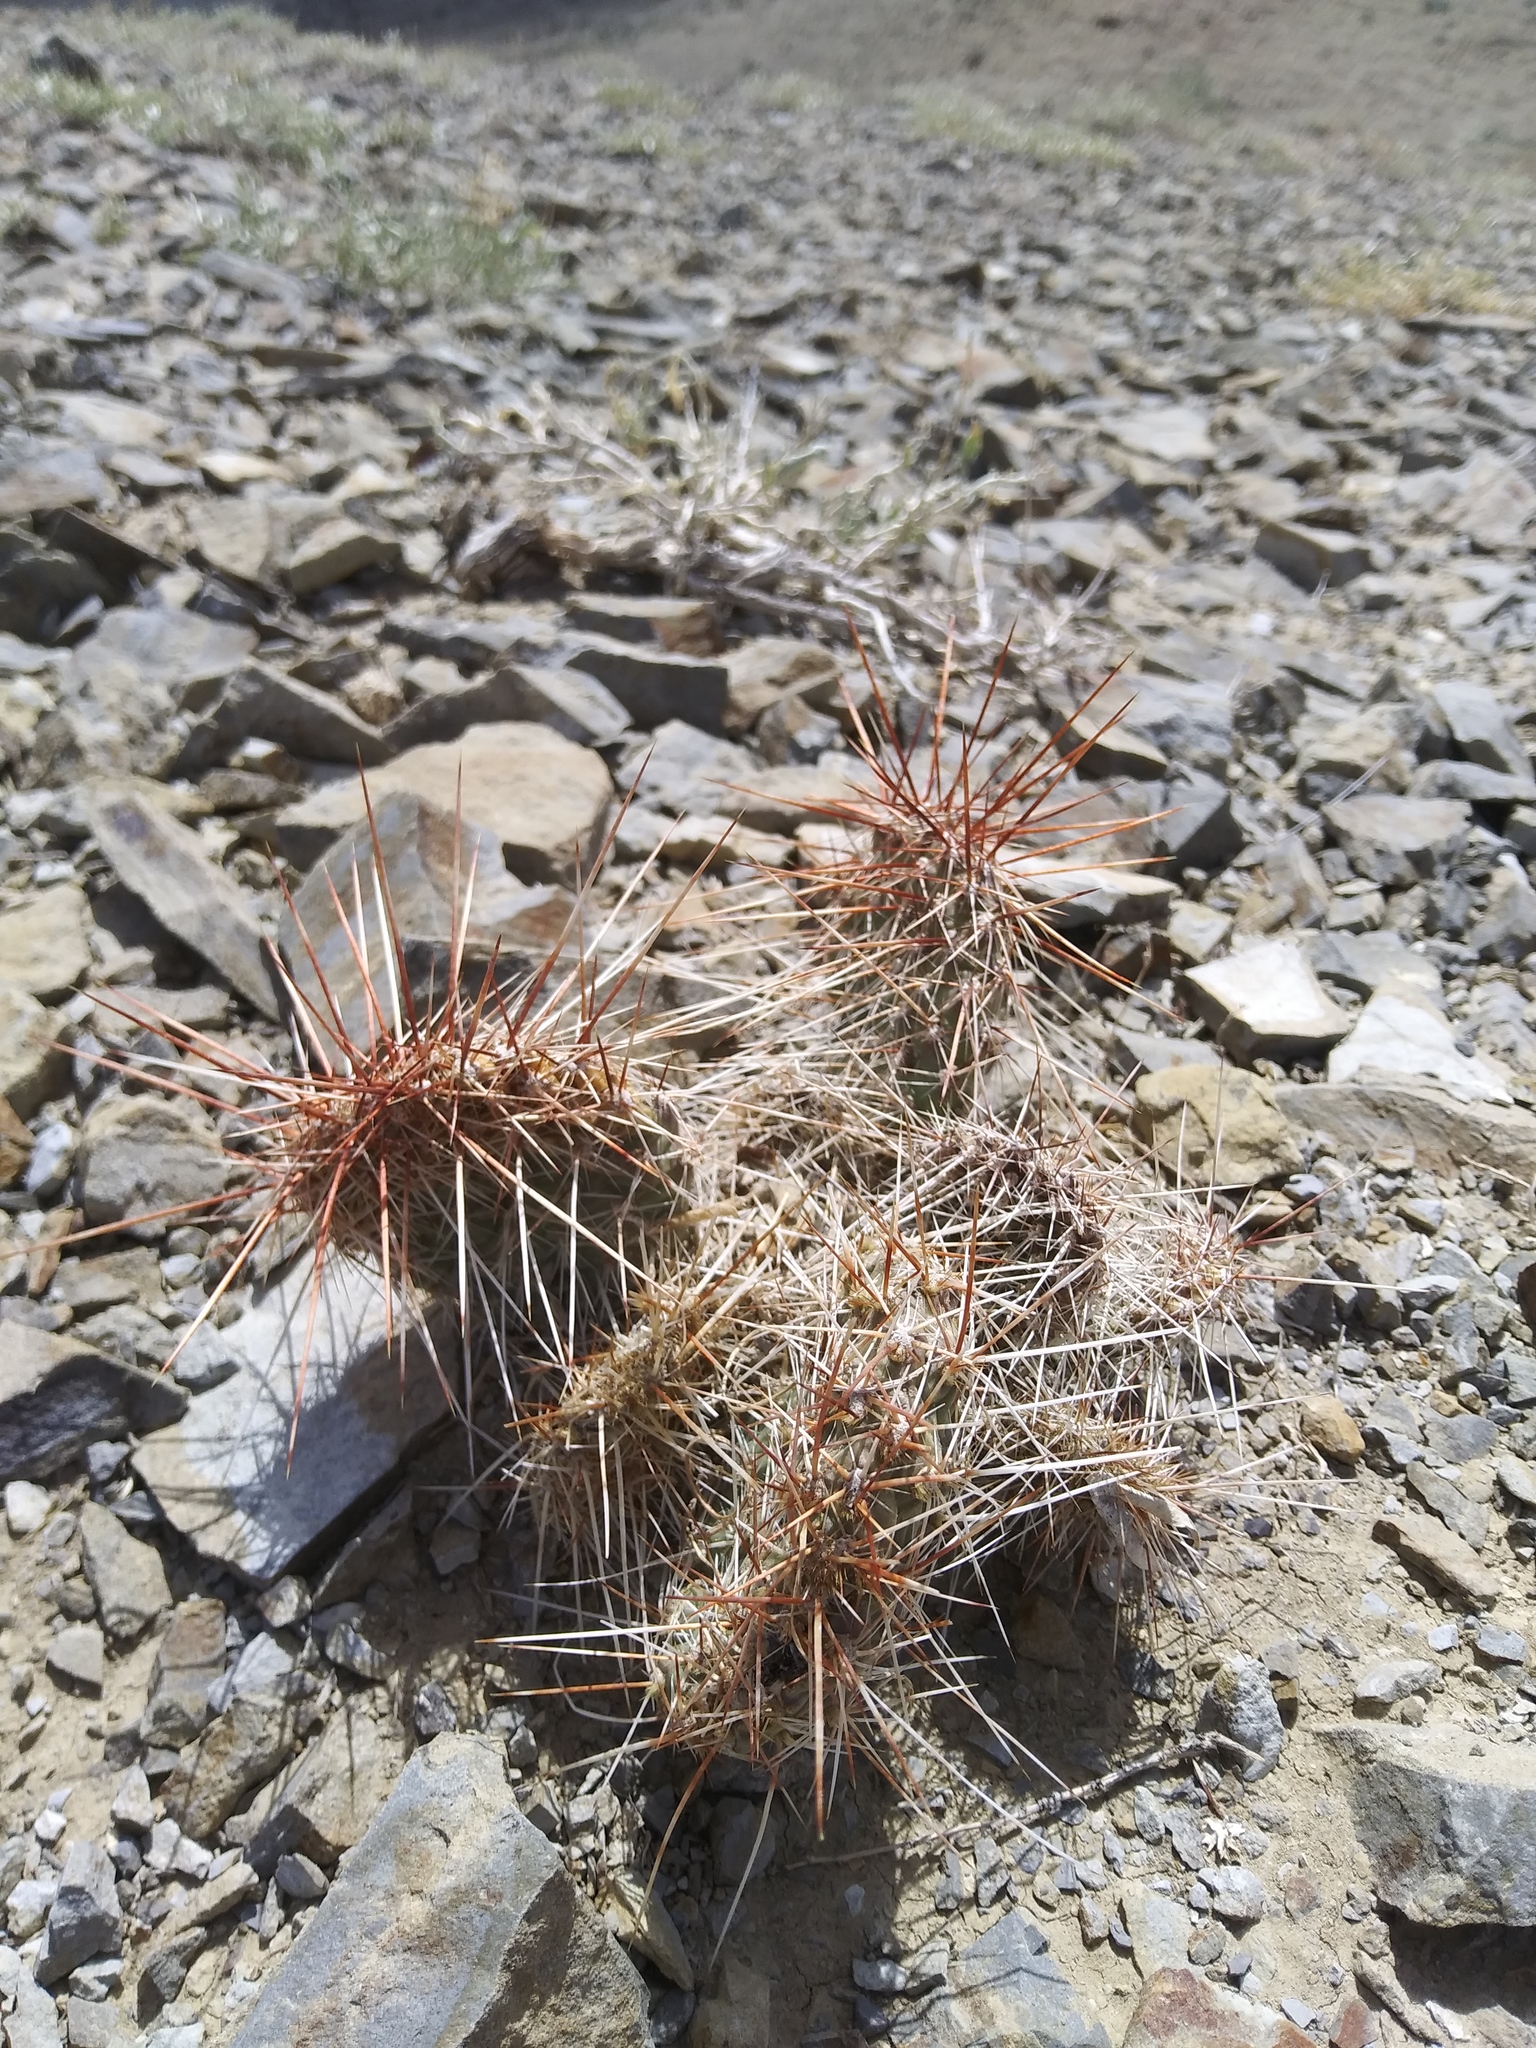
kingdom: Plantae
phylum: Tracheophyta
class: Magnoliopsida
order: Caryophyllales
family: Cactaceae
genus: Opuntia
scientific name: Opuntia polyacantha
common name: Plains prickly-pear
